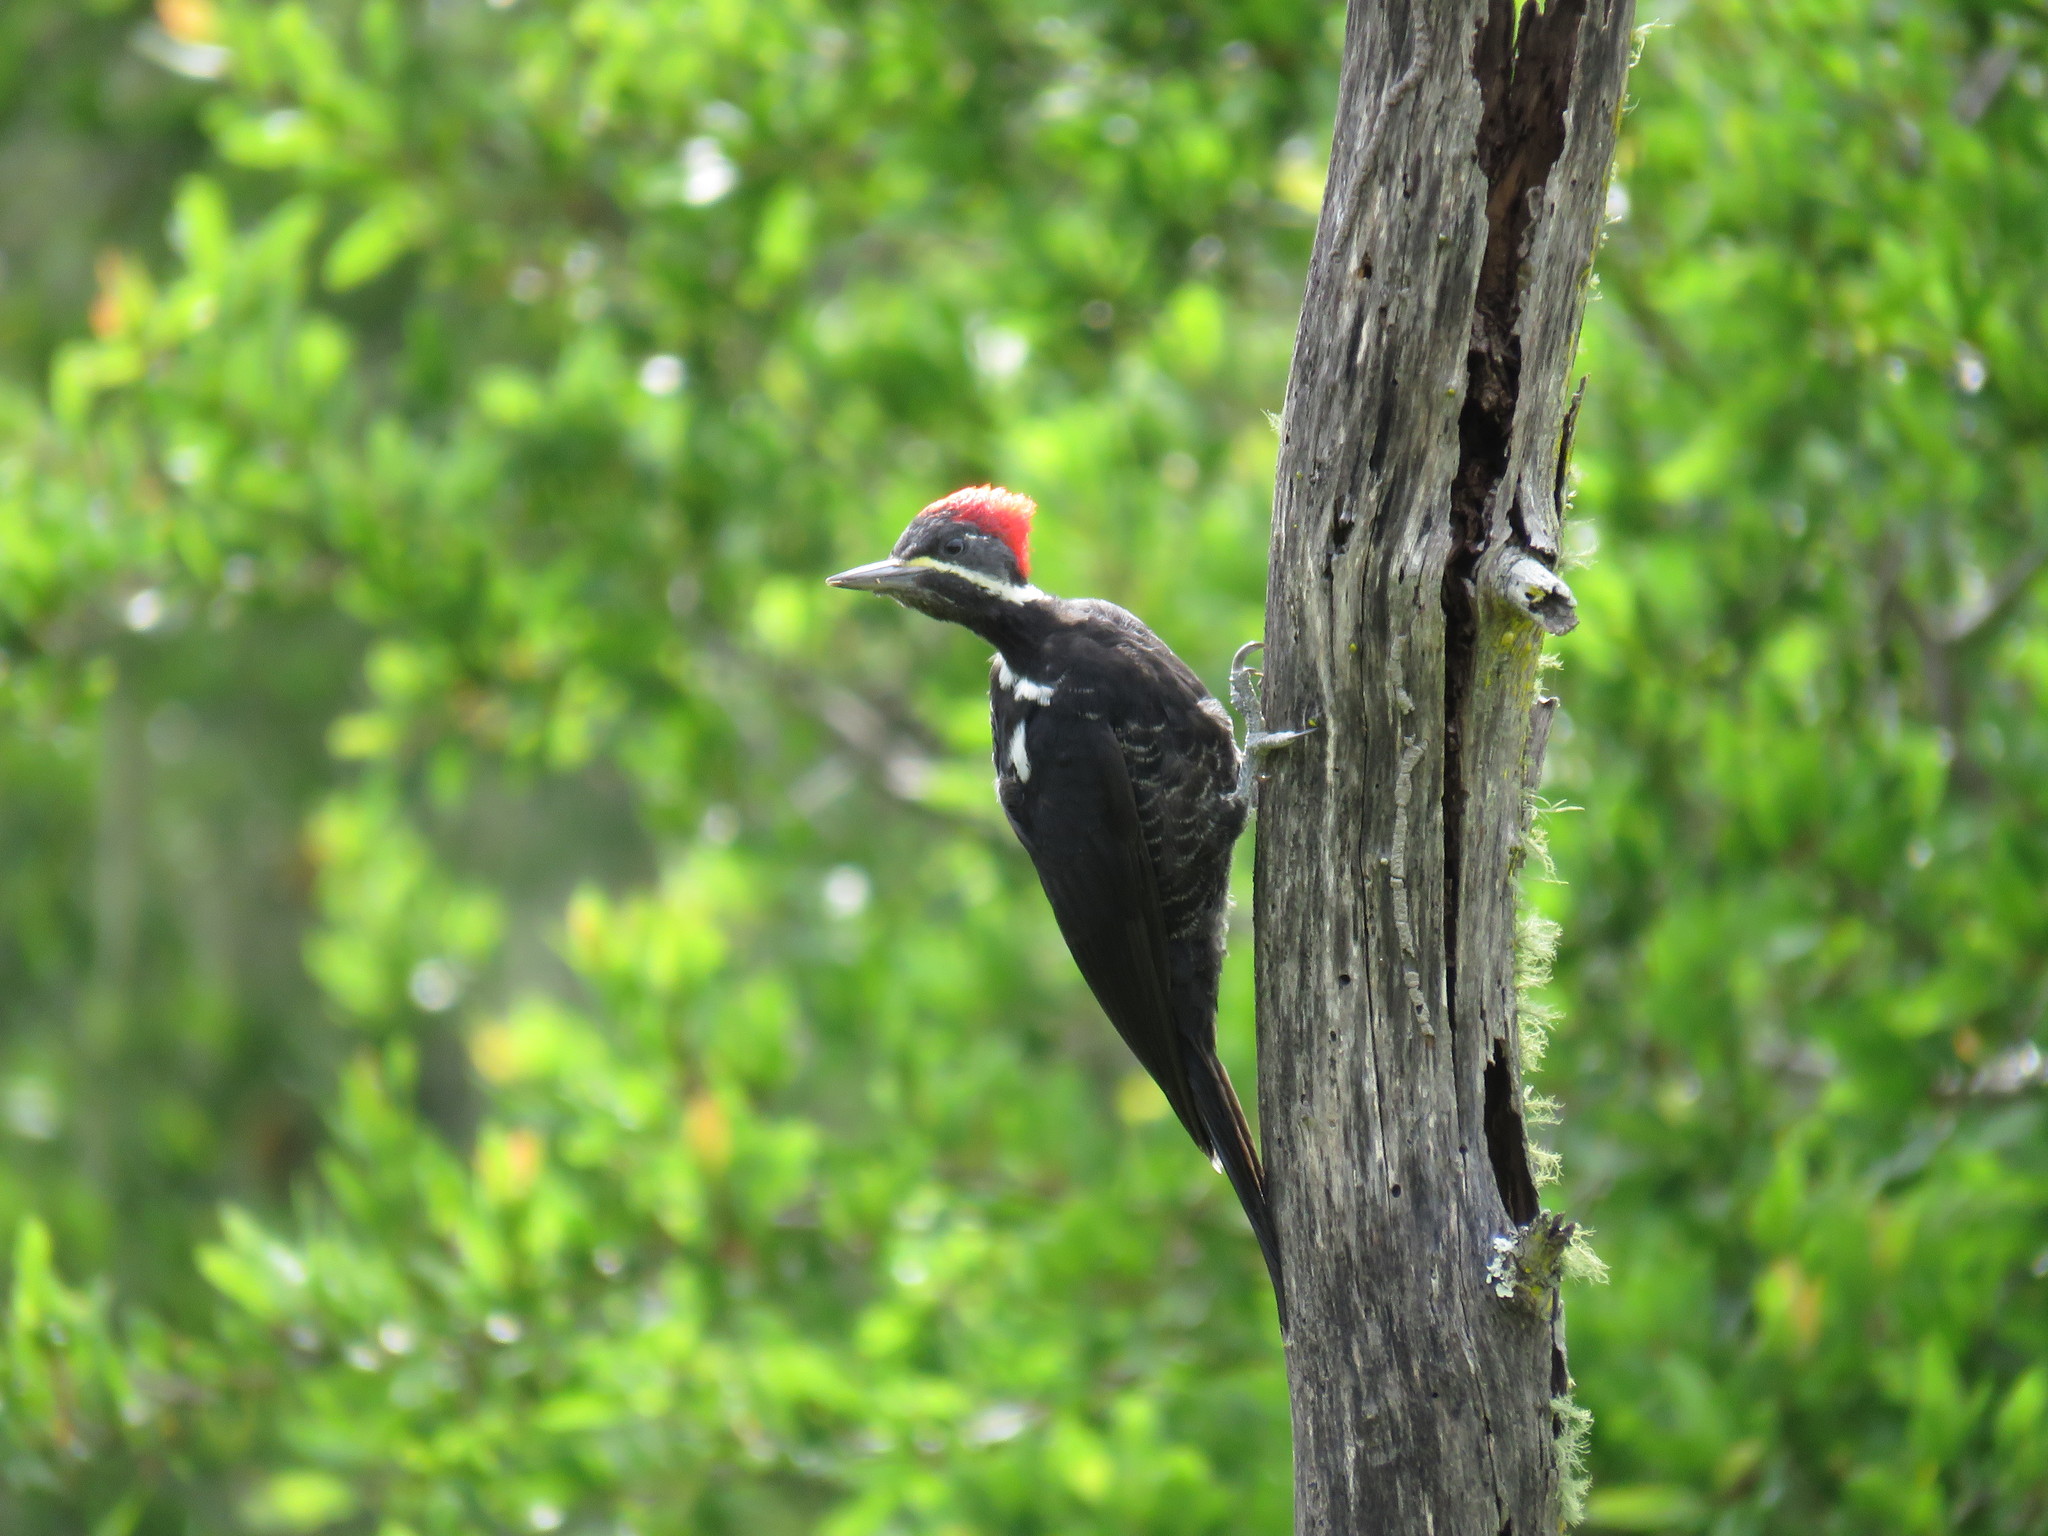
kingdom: Animalia
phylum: Chordata
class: Aves
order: Piciformes
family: Picidae
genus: Dryocopus
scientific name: Dryocopus
